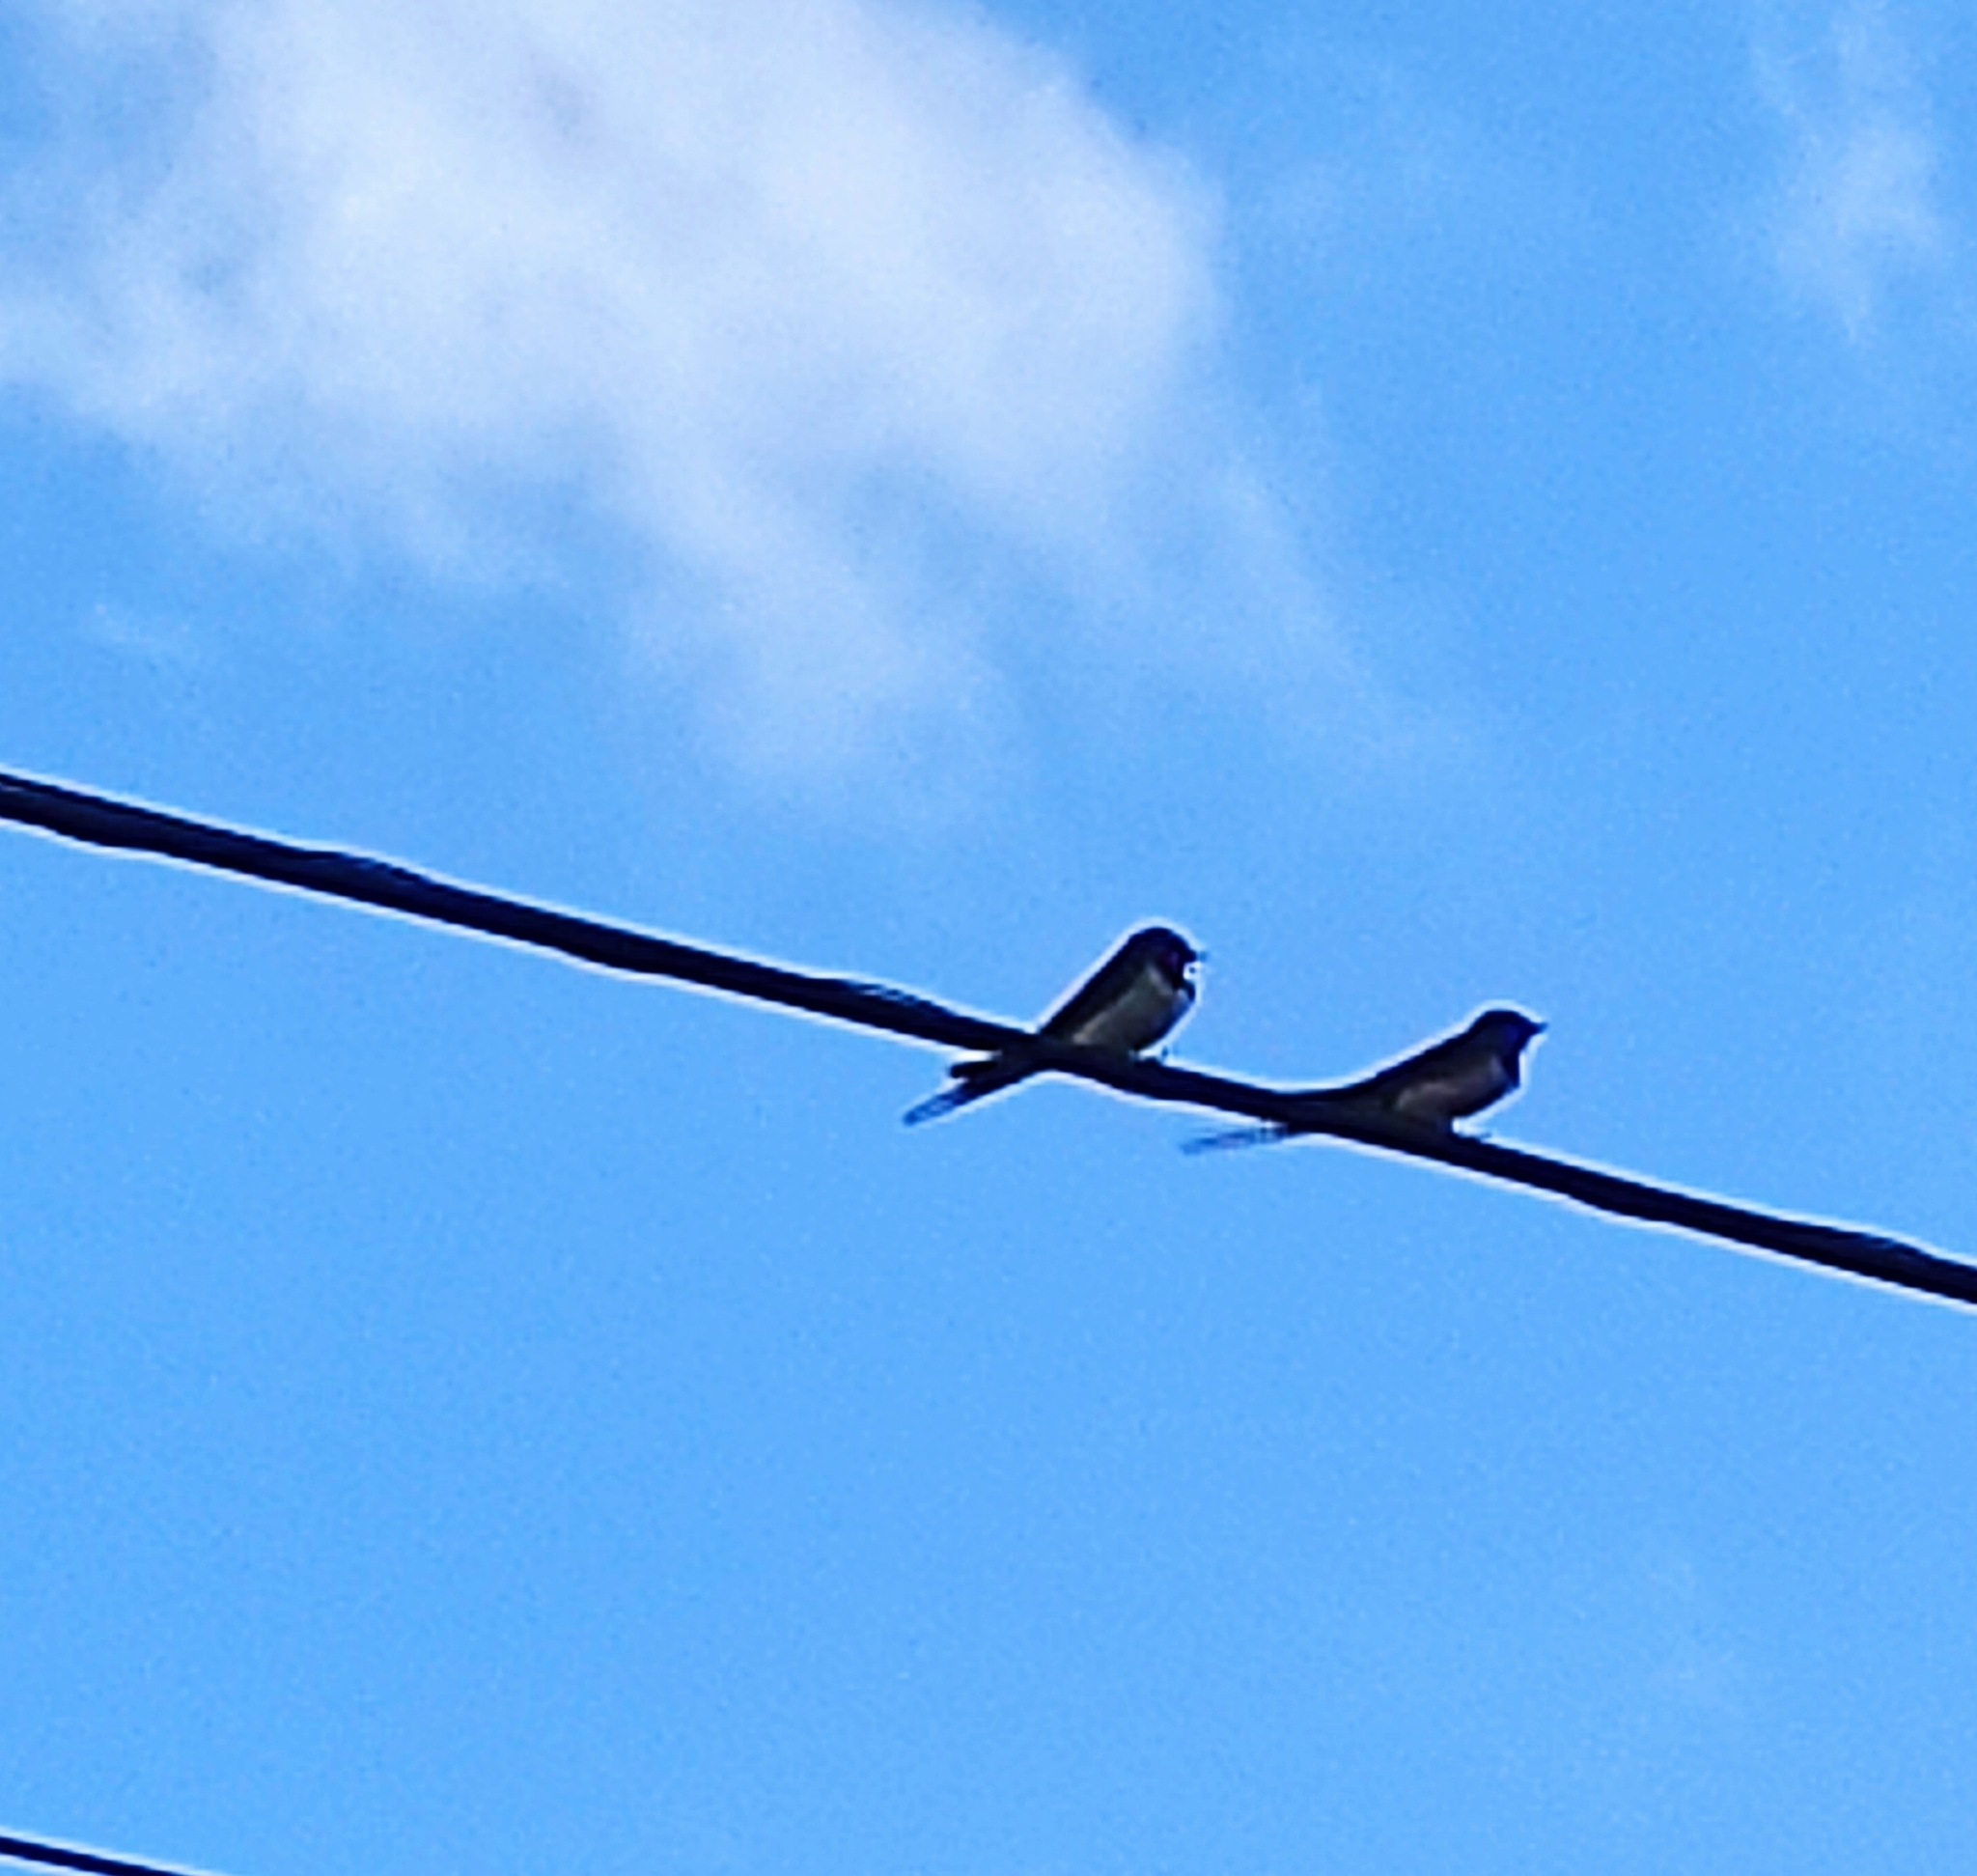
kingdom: Animalia
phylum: Chordata
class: Aves
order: Passeriformes
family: Hirundinidae
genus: Hirundo
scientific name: Hirundo rustica
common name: Barn swallow
